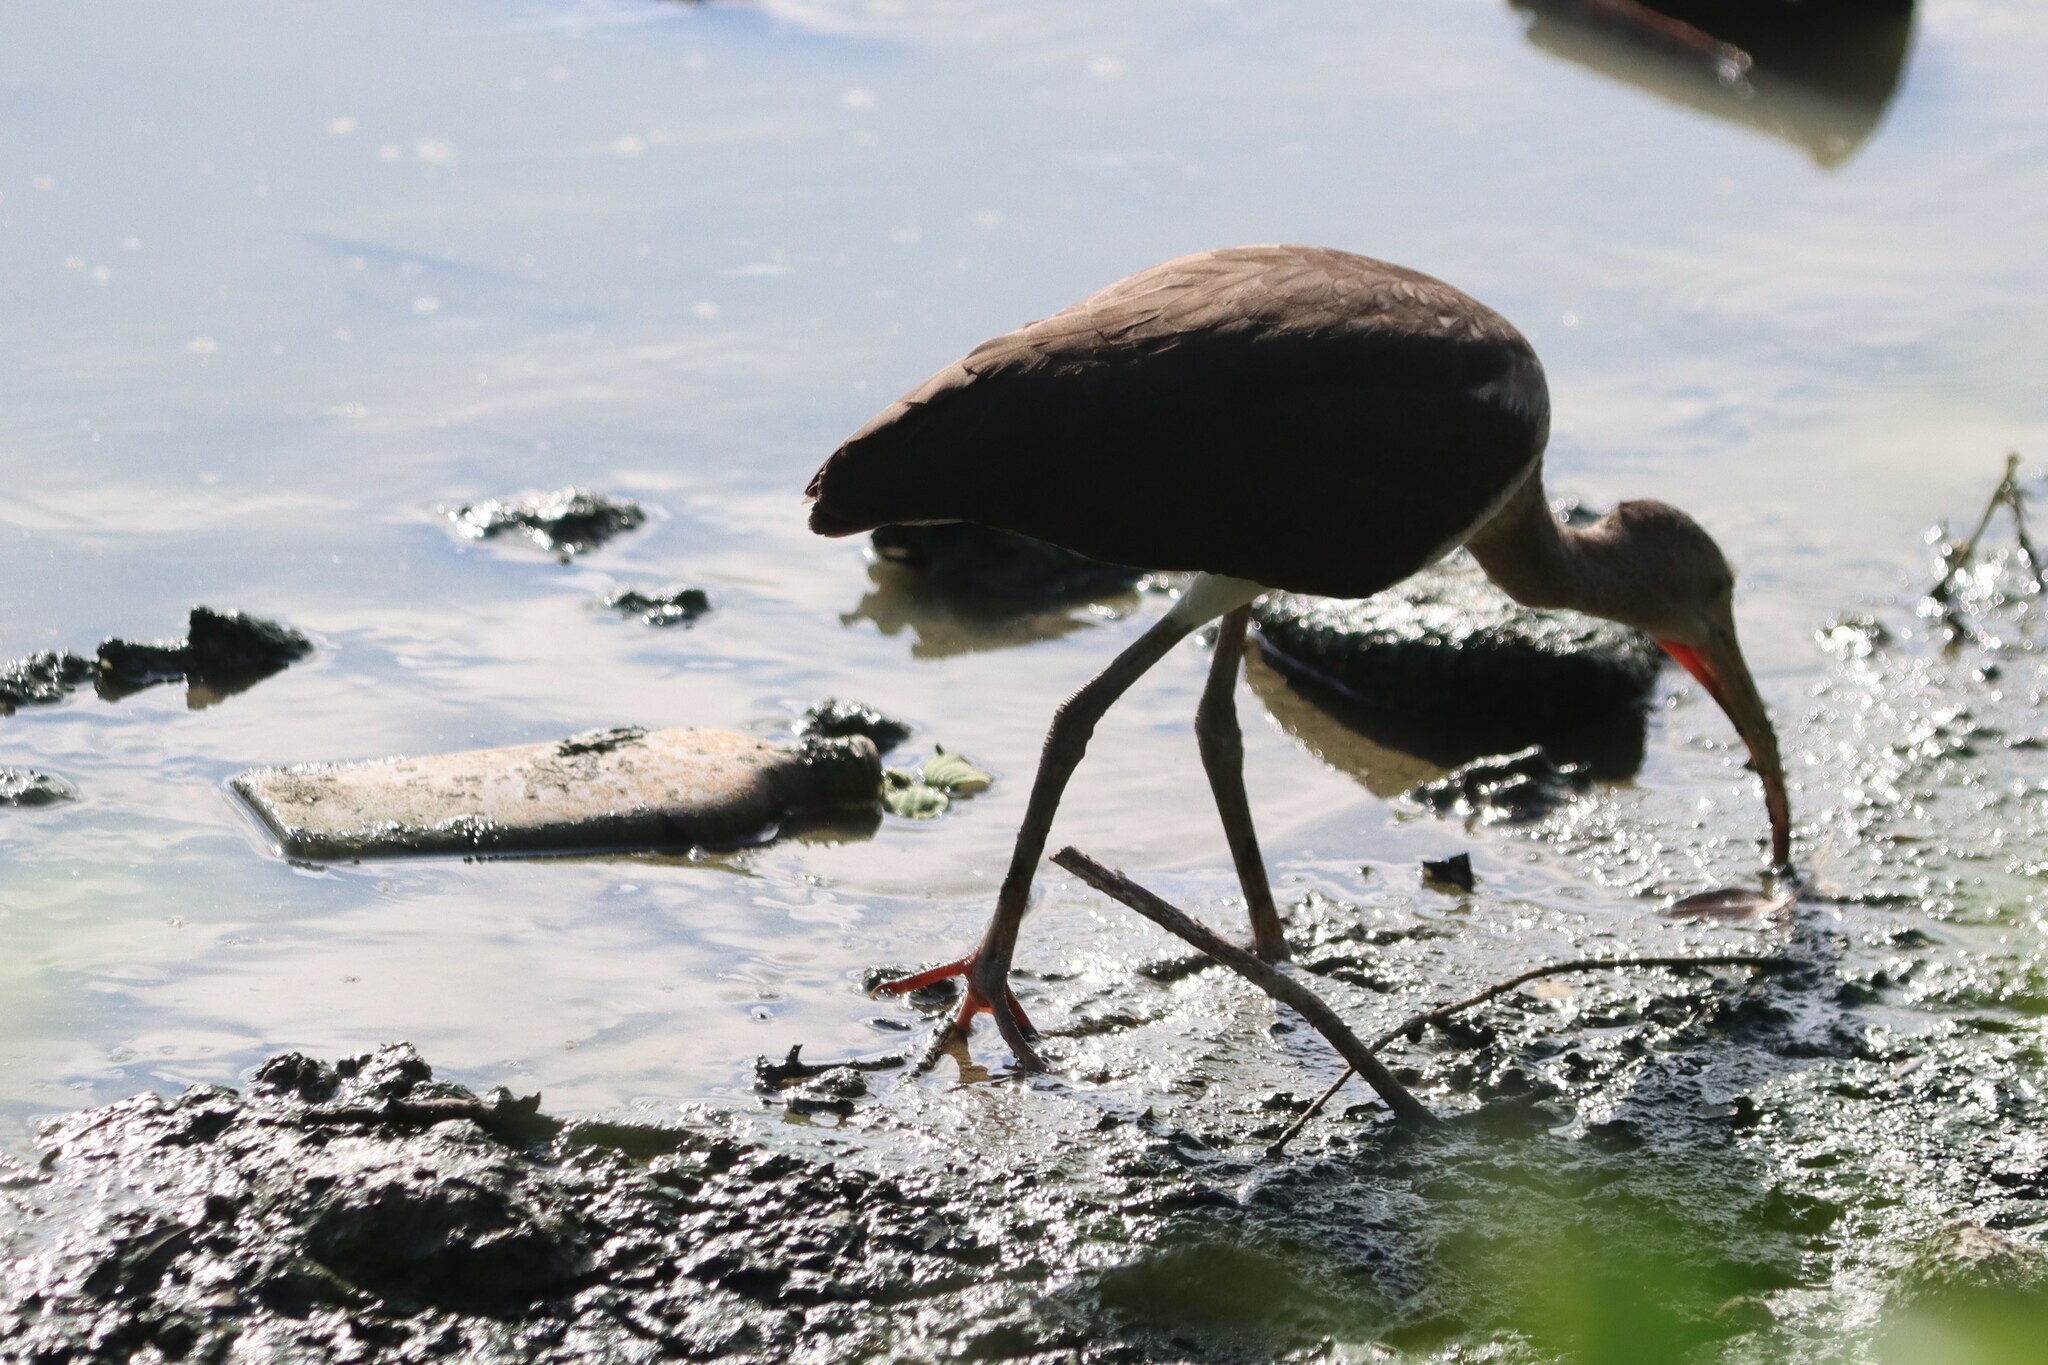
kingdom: Animalia
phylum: Chordata
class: Aves
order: Pelecaniformes
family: Threskiornithidae
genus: Eudocimus
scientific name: Eudocimus albus
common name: White ibis
